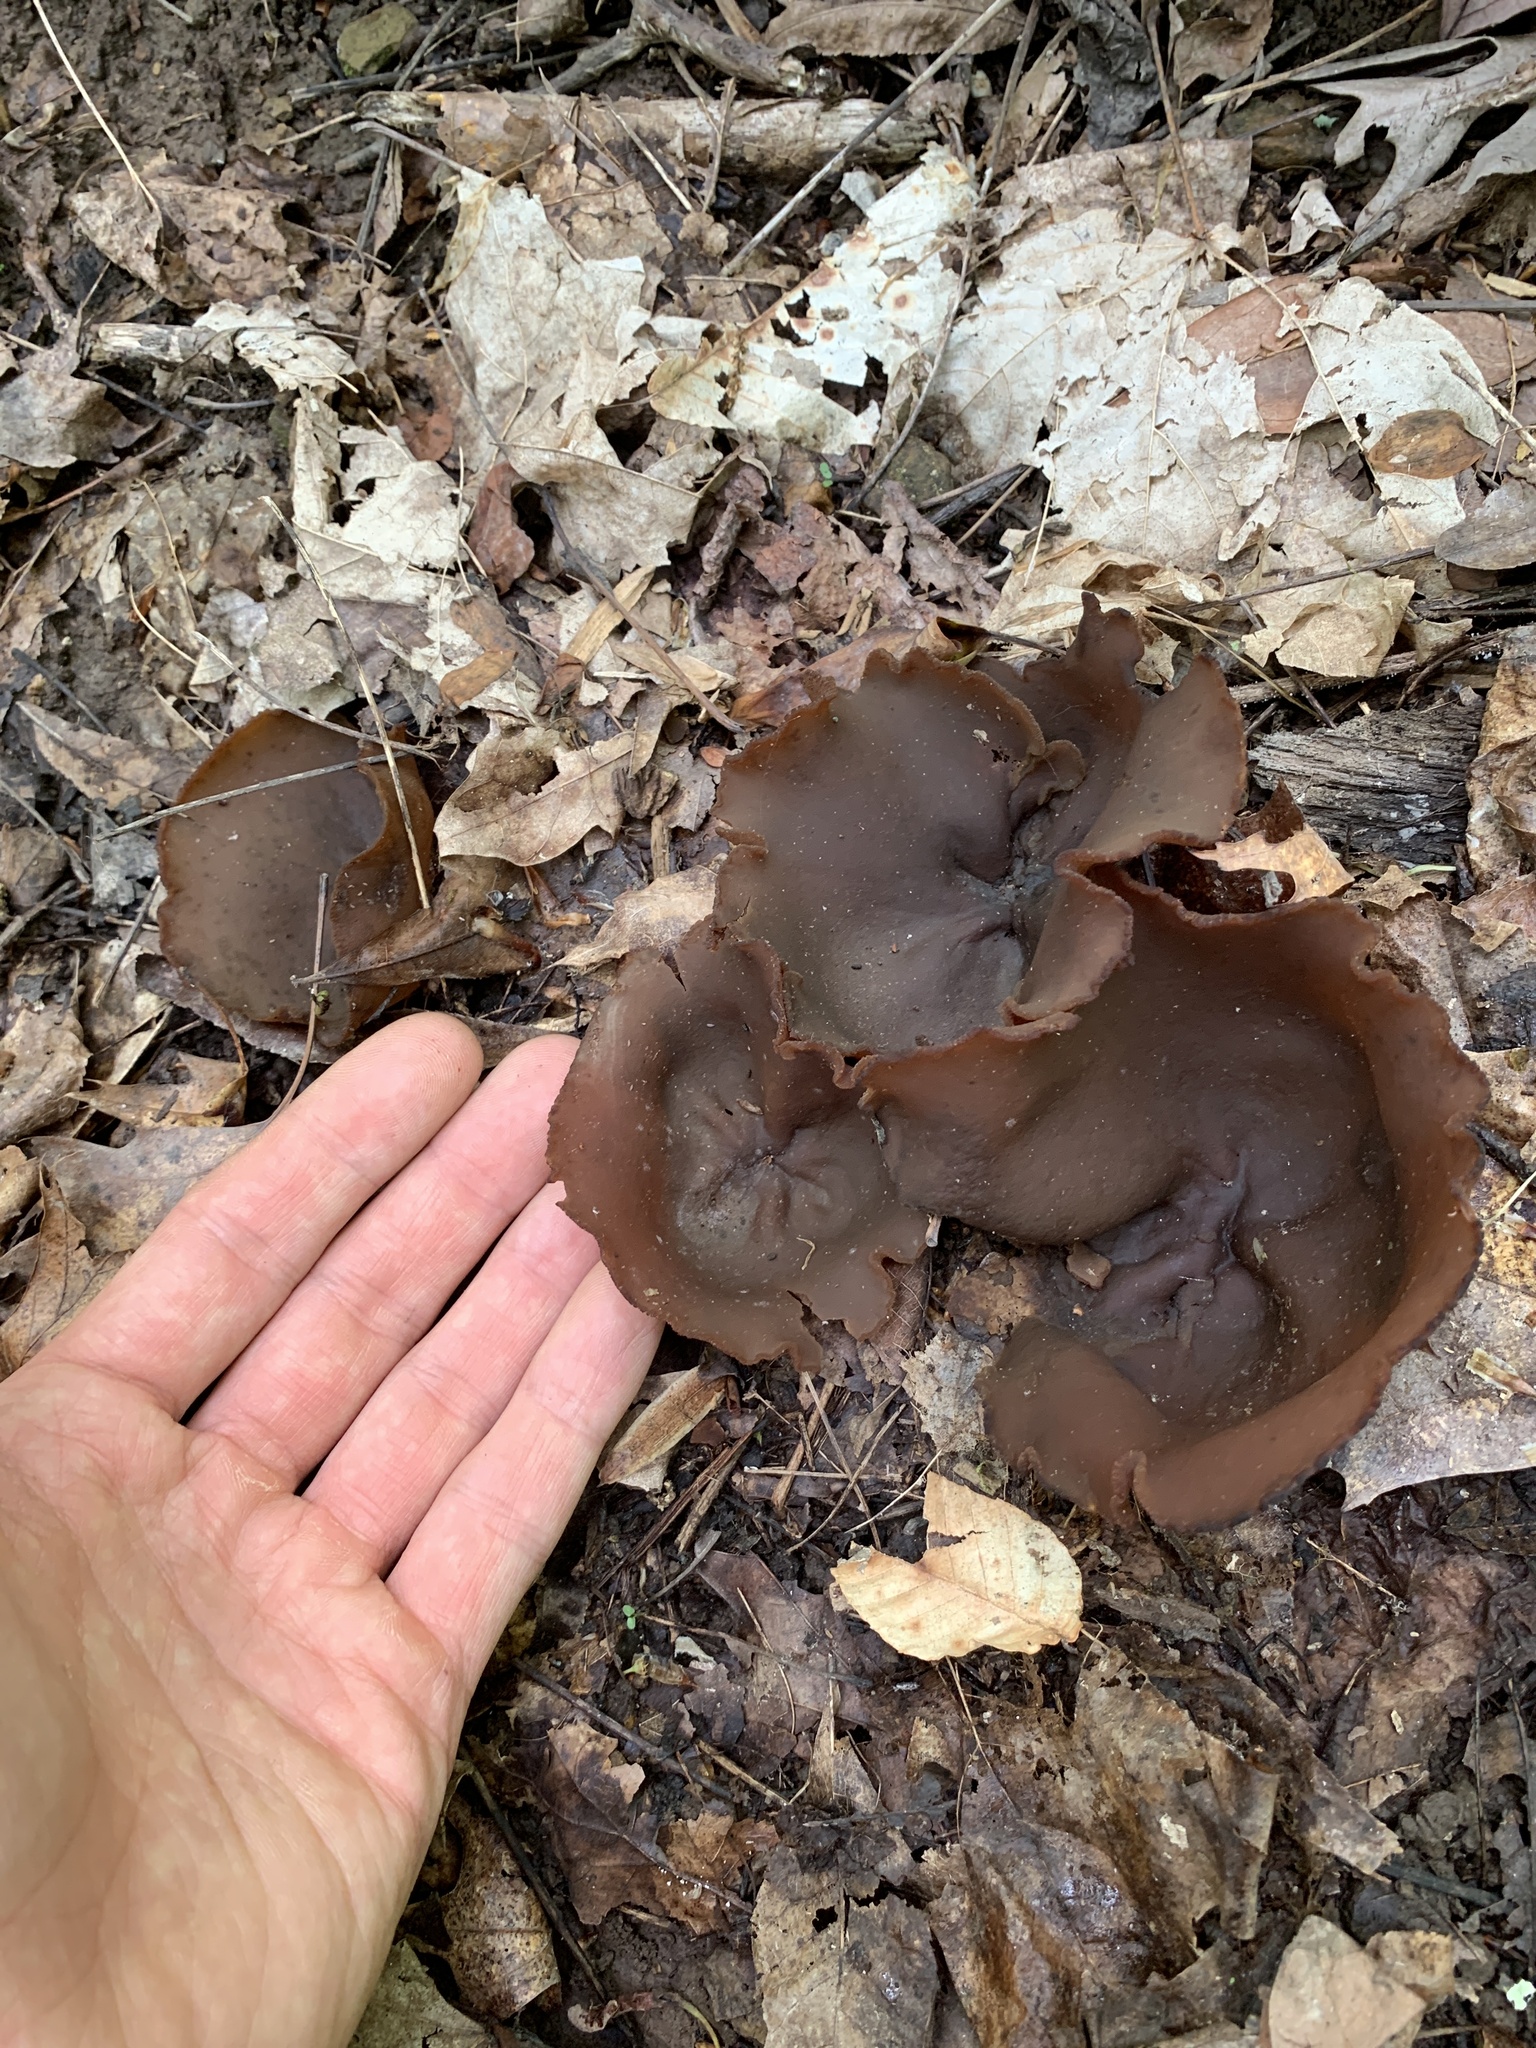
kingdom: Fungi
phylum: Ascomycota
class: Pezizomycetes
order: Pezizales
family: Pezizaceae
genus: Phylloscypha
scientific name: Phylloscypha phyllogena
